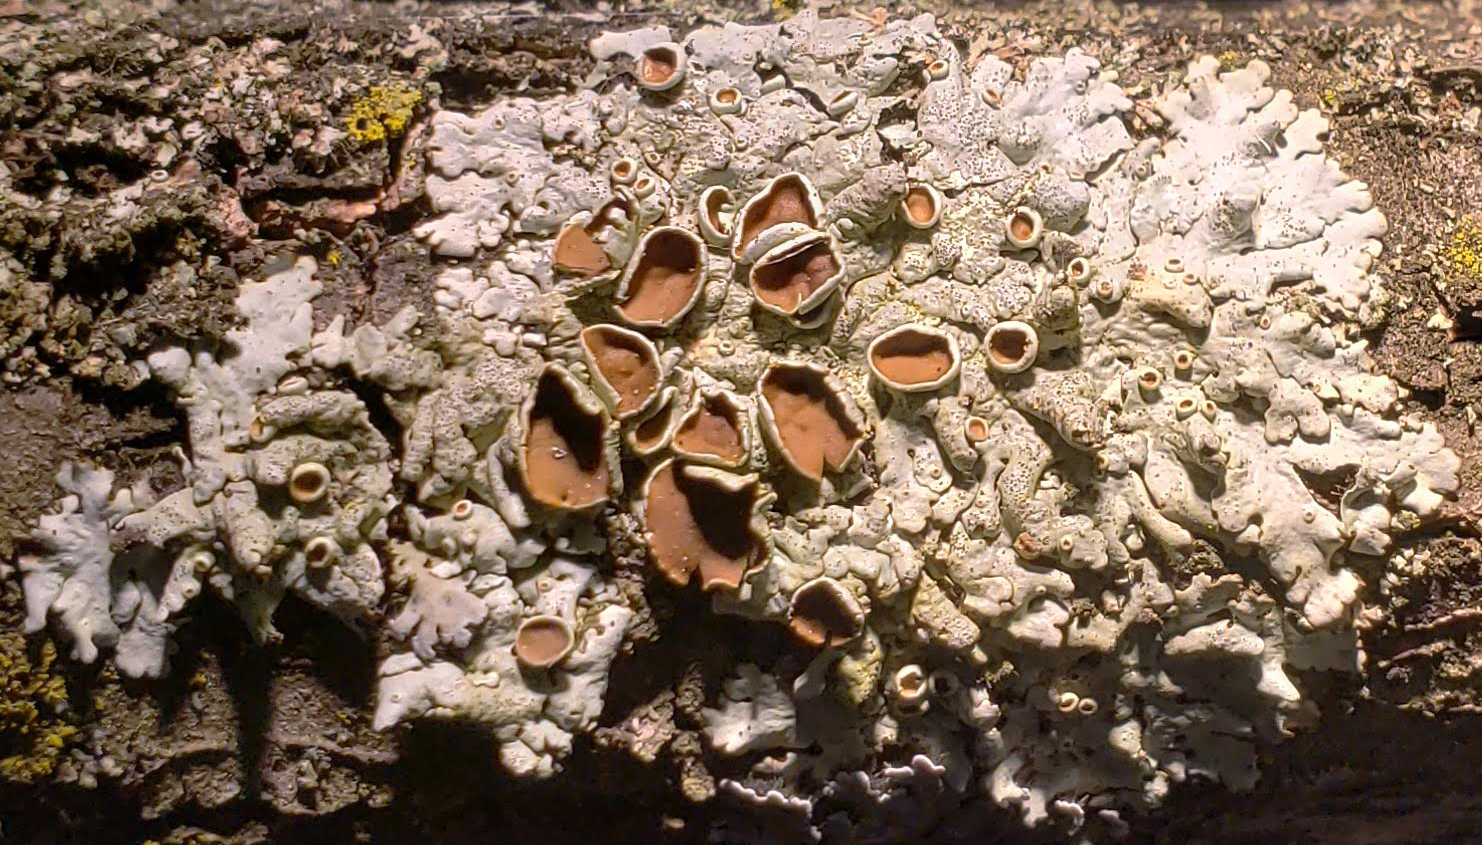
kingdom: Fungi
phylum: Ascomycota
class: Lecanoromycetes
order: Lecanorales
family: Parmeliaceae
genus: Myelochroa
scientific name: Myelochroa galbina
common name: Smooth axil-bristle lichen
